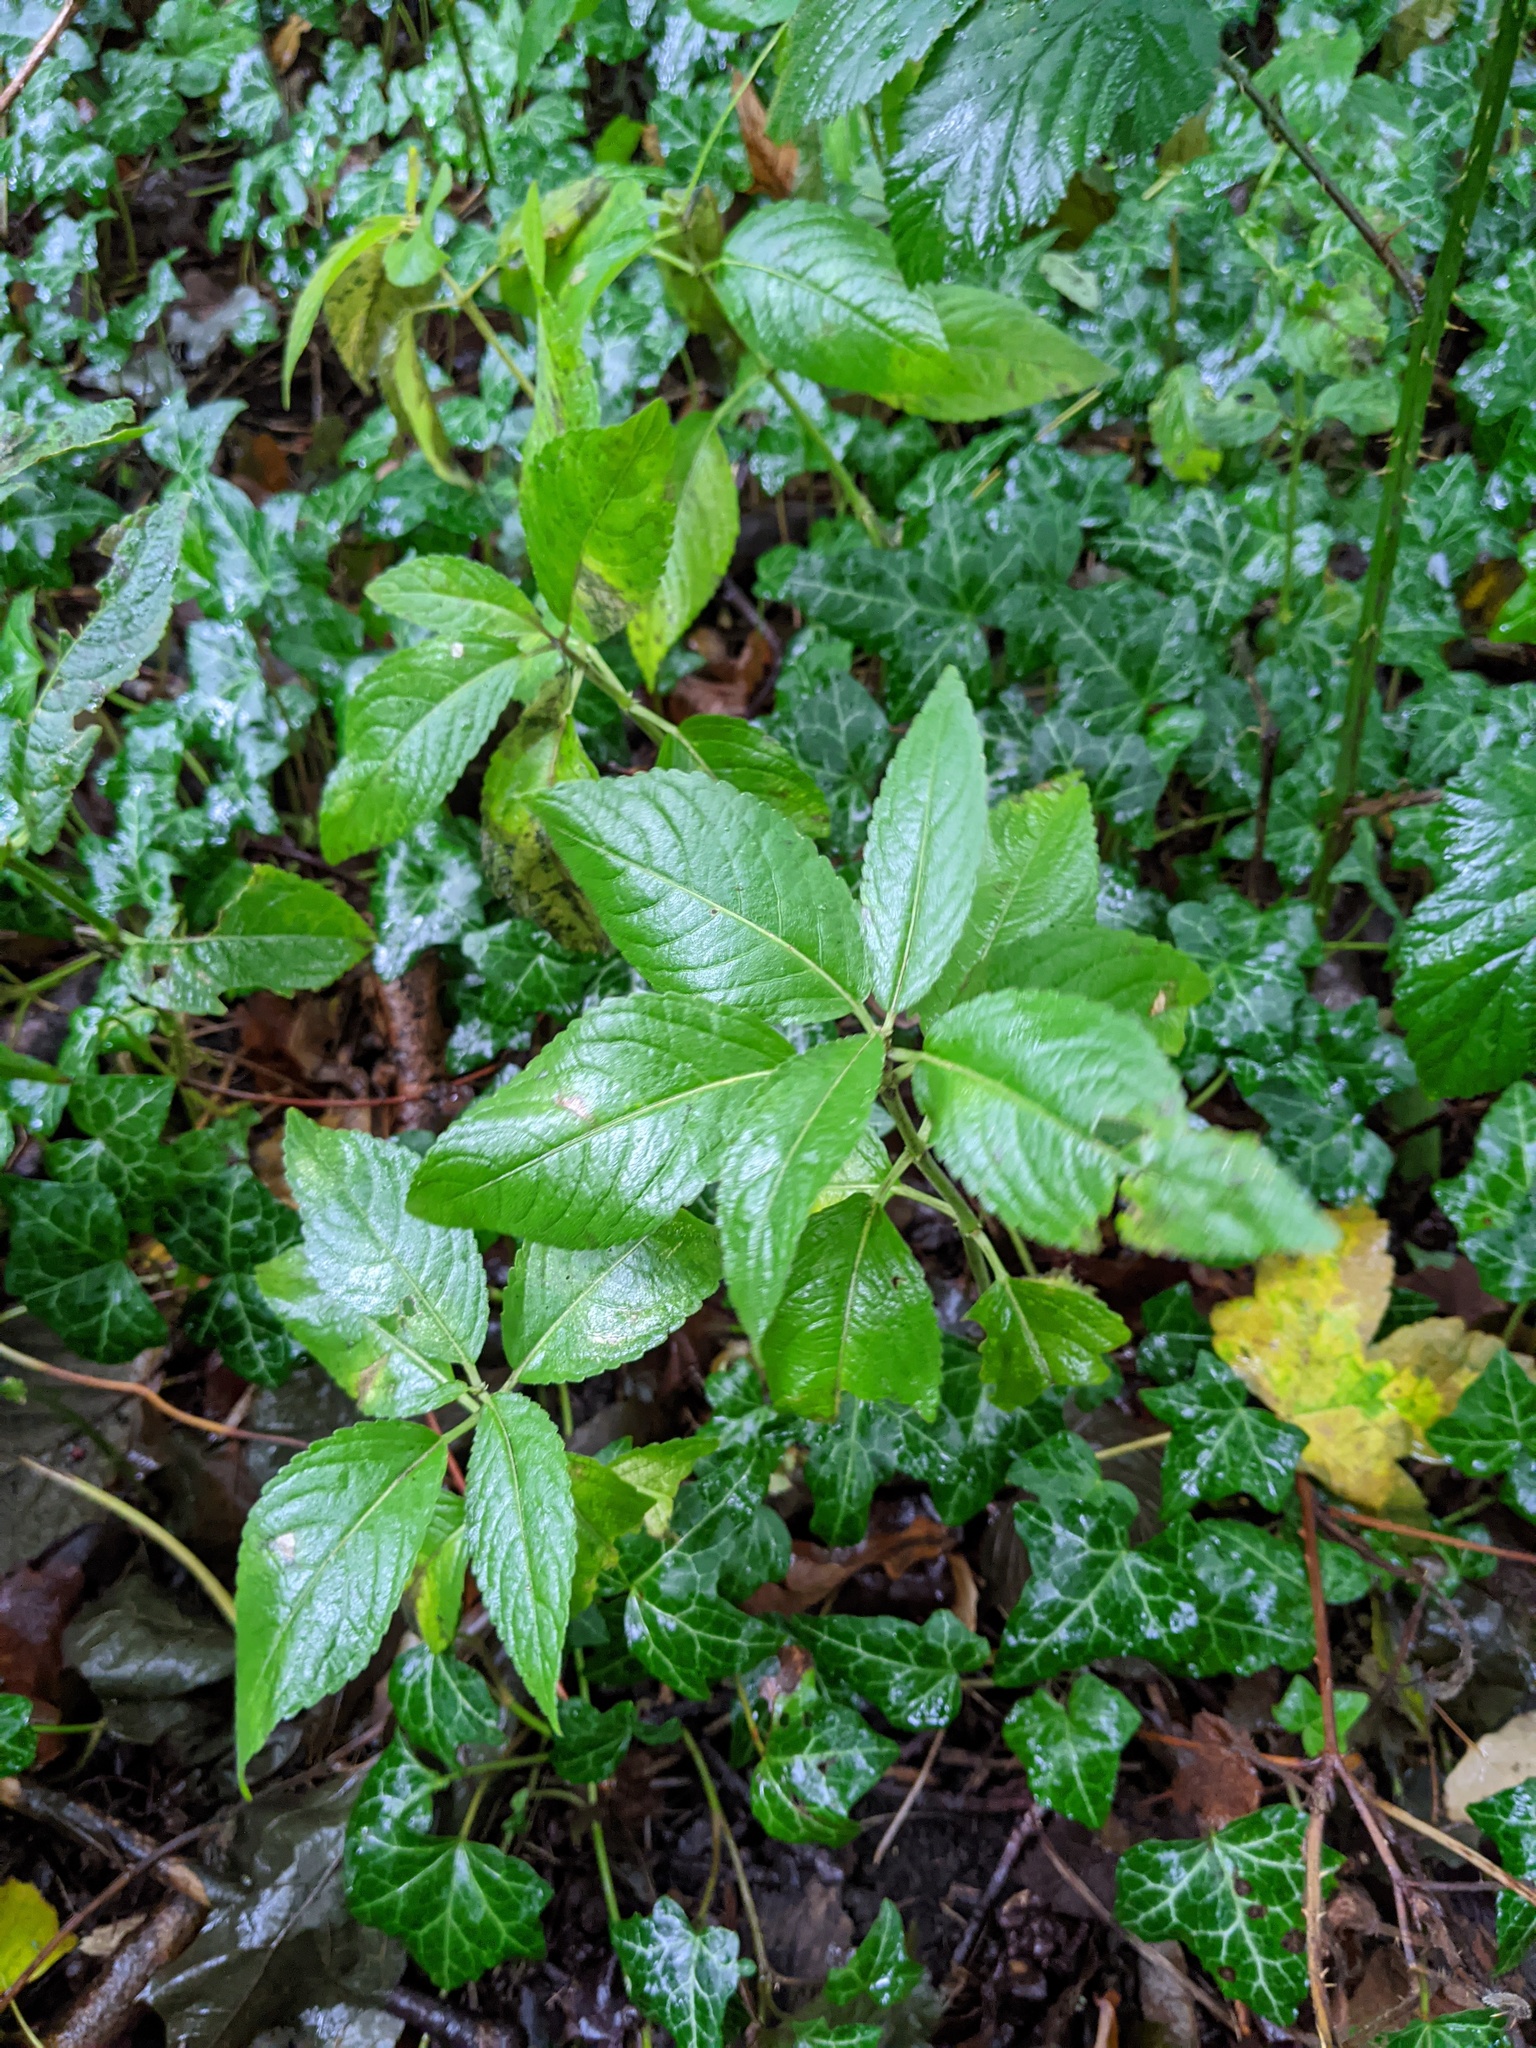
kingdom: Plantae
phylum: Tracheophyta
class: Magnoliopsida
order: Malpighiales
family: Euphorbiaceae
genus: Mercurialis
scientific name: Mercurialis perennis
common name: Dog mercury
